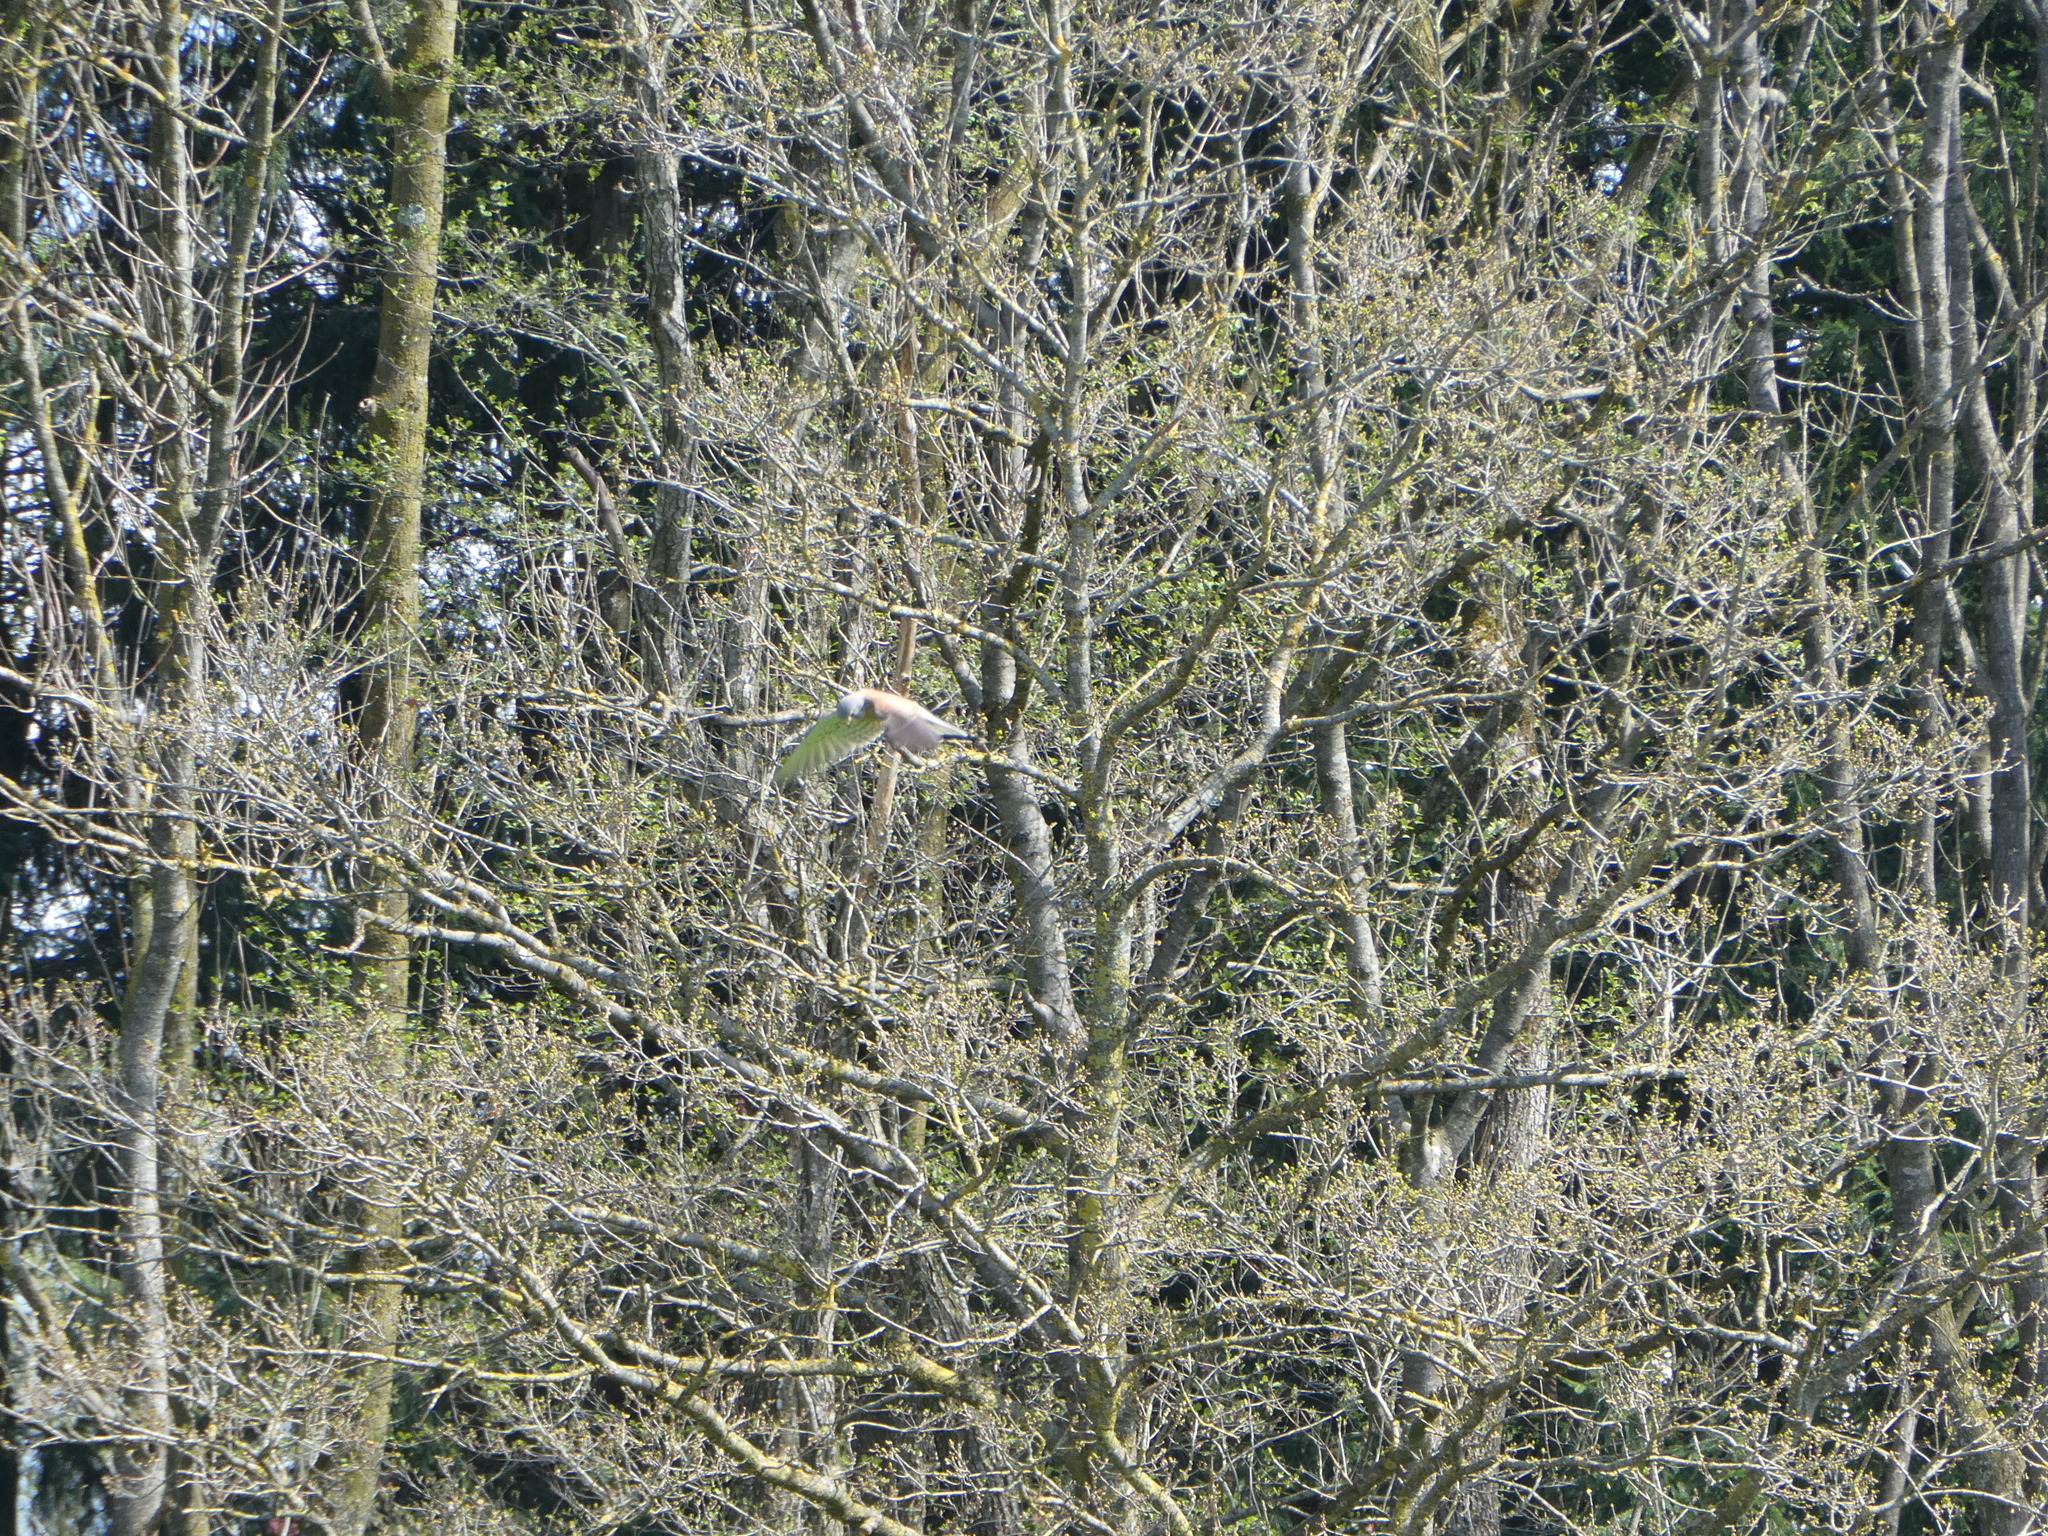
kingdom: Animalia
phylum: Chordata
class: Aves
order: Falconiformes
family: Falconidae
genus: Falco
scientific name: Falco tinnunculus
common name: Common kestrel
